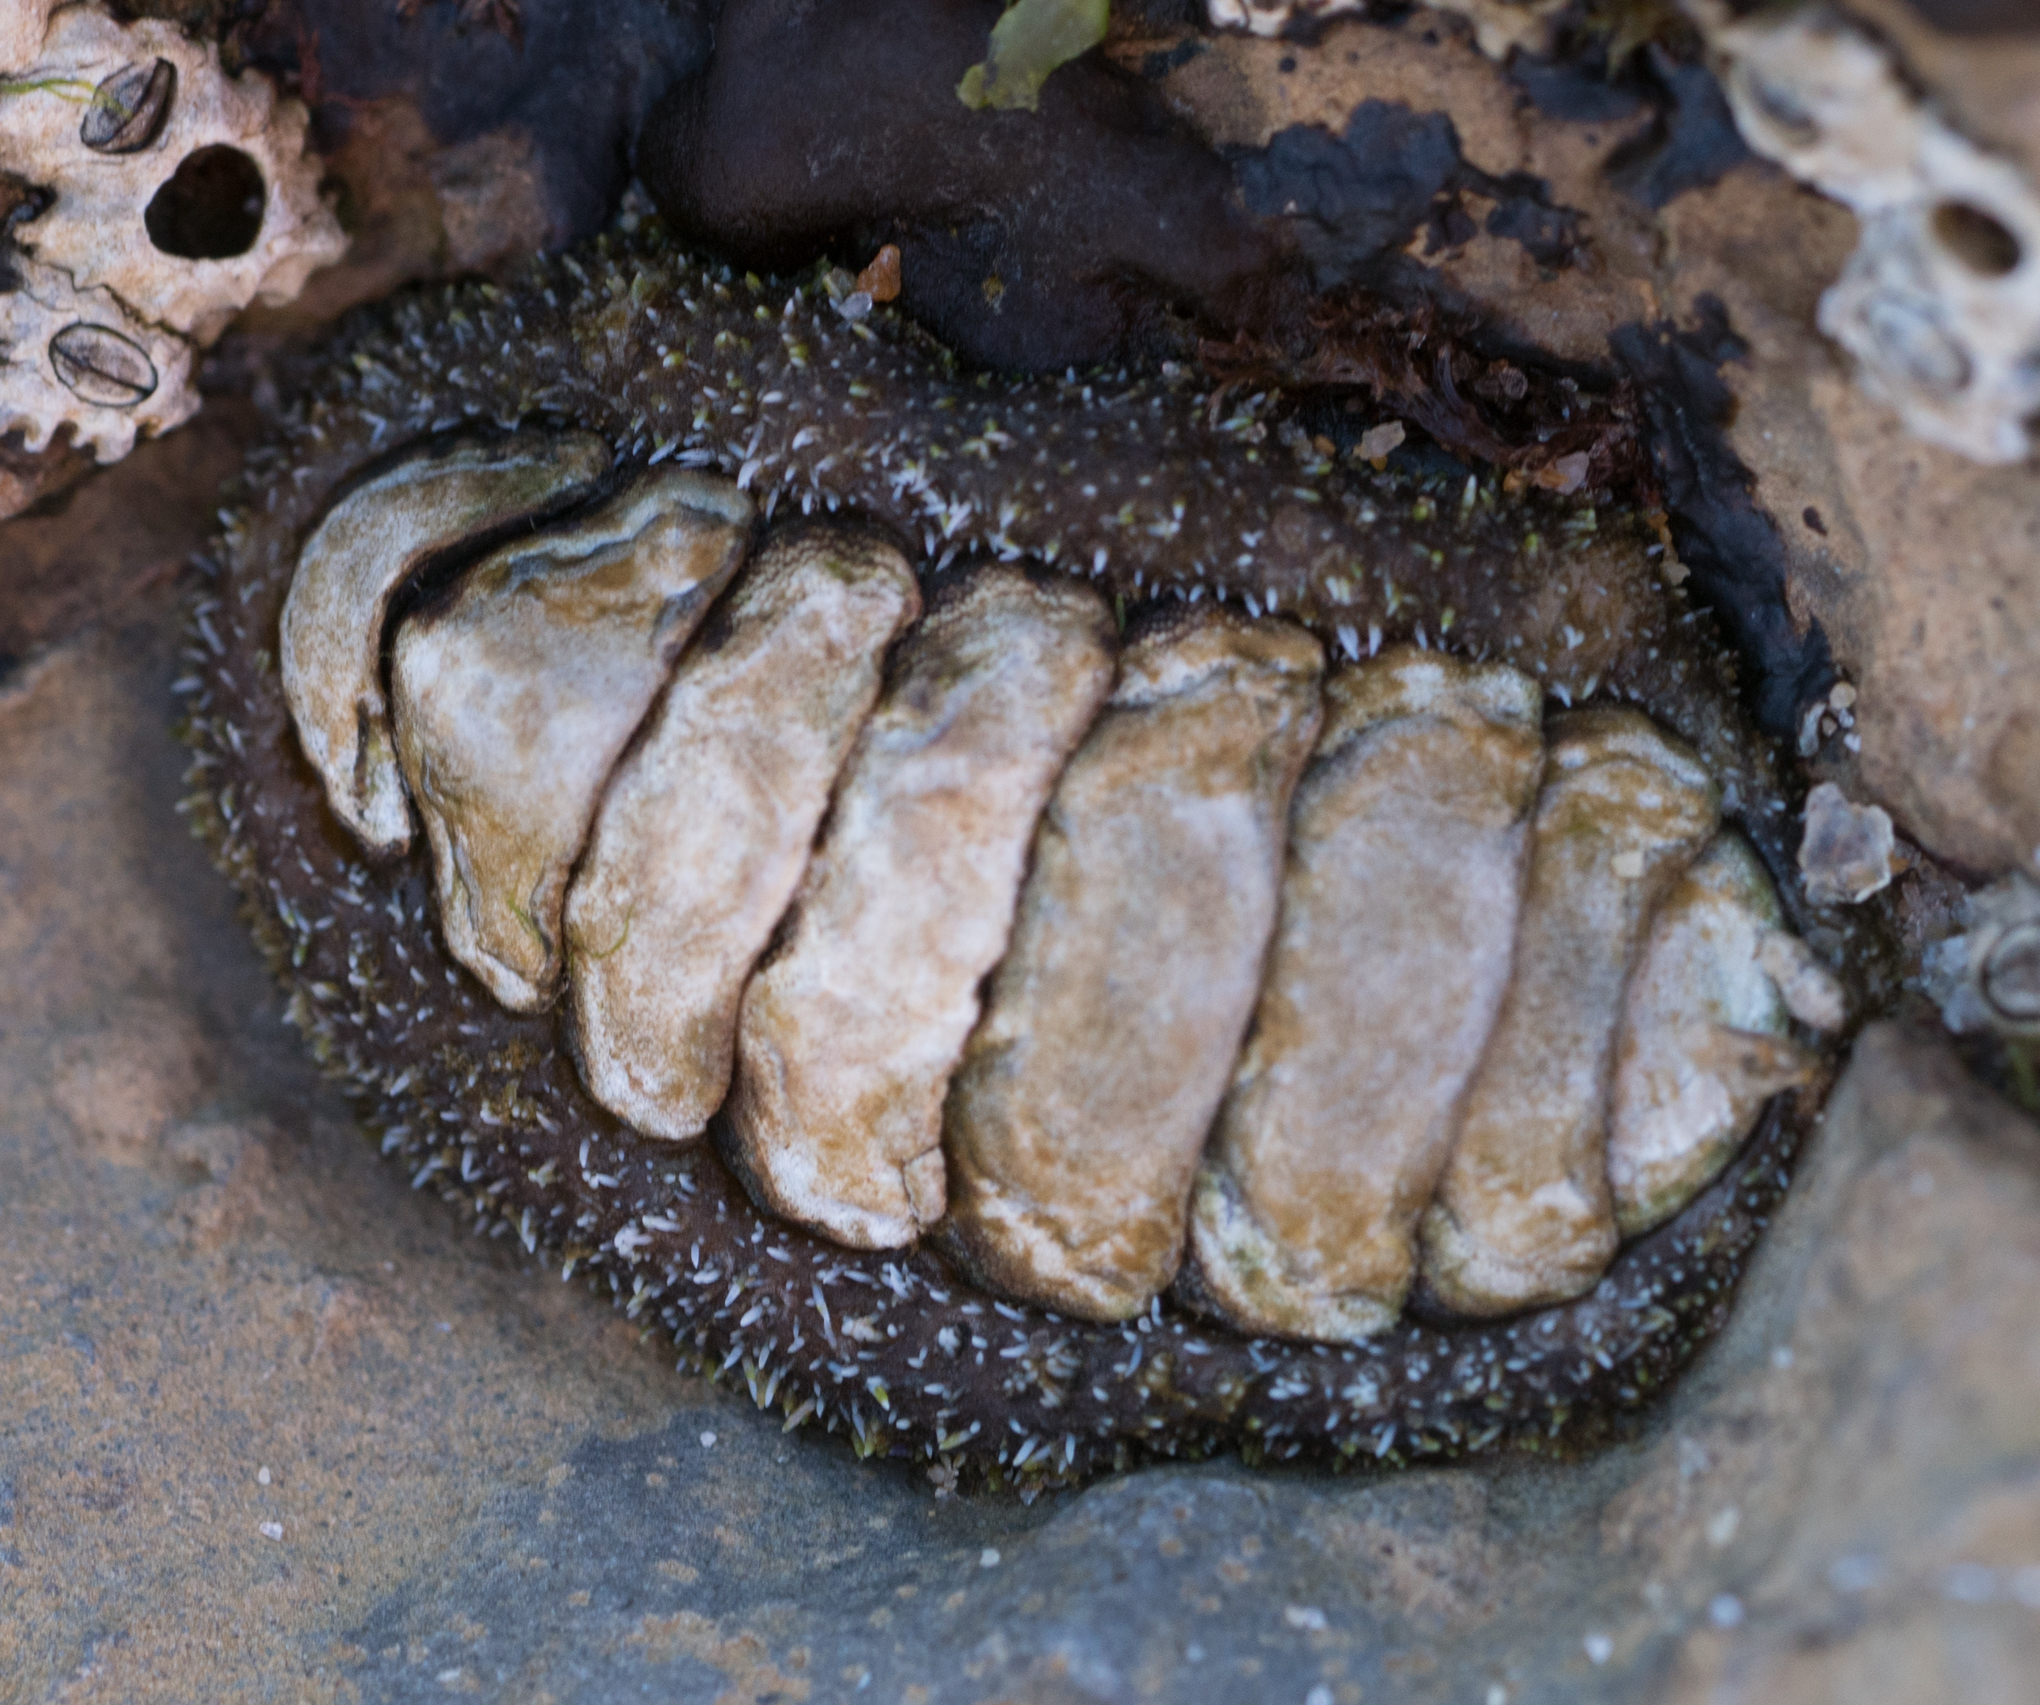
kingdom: Animalia
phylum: Mollusca
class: Polyplacophora
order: Chitonida
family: Tonicellidae
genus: Nuttallina
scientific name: Nuttallina californica
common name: California nuttall chiton
